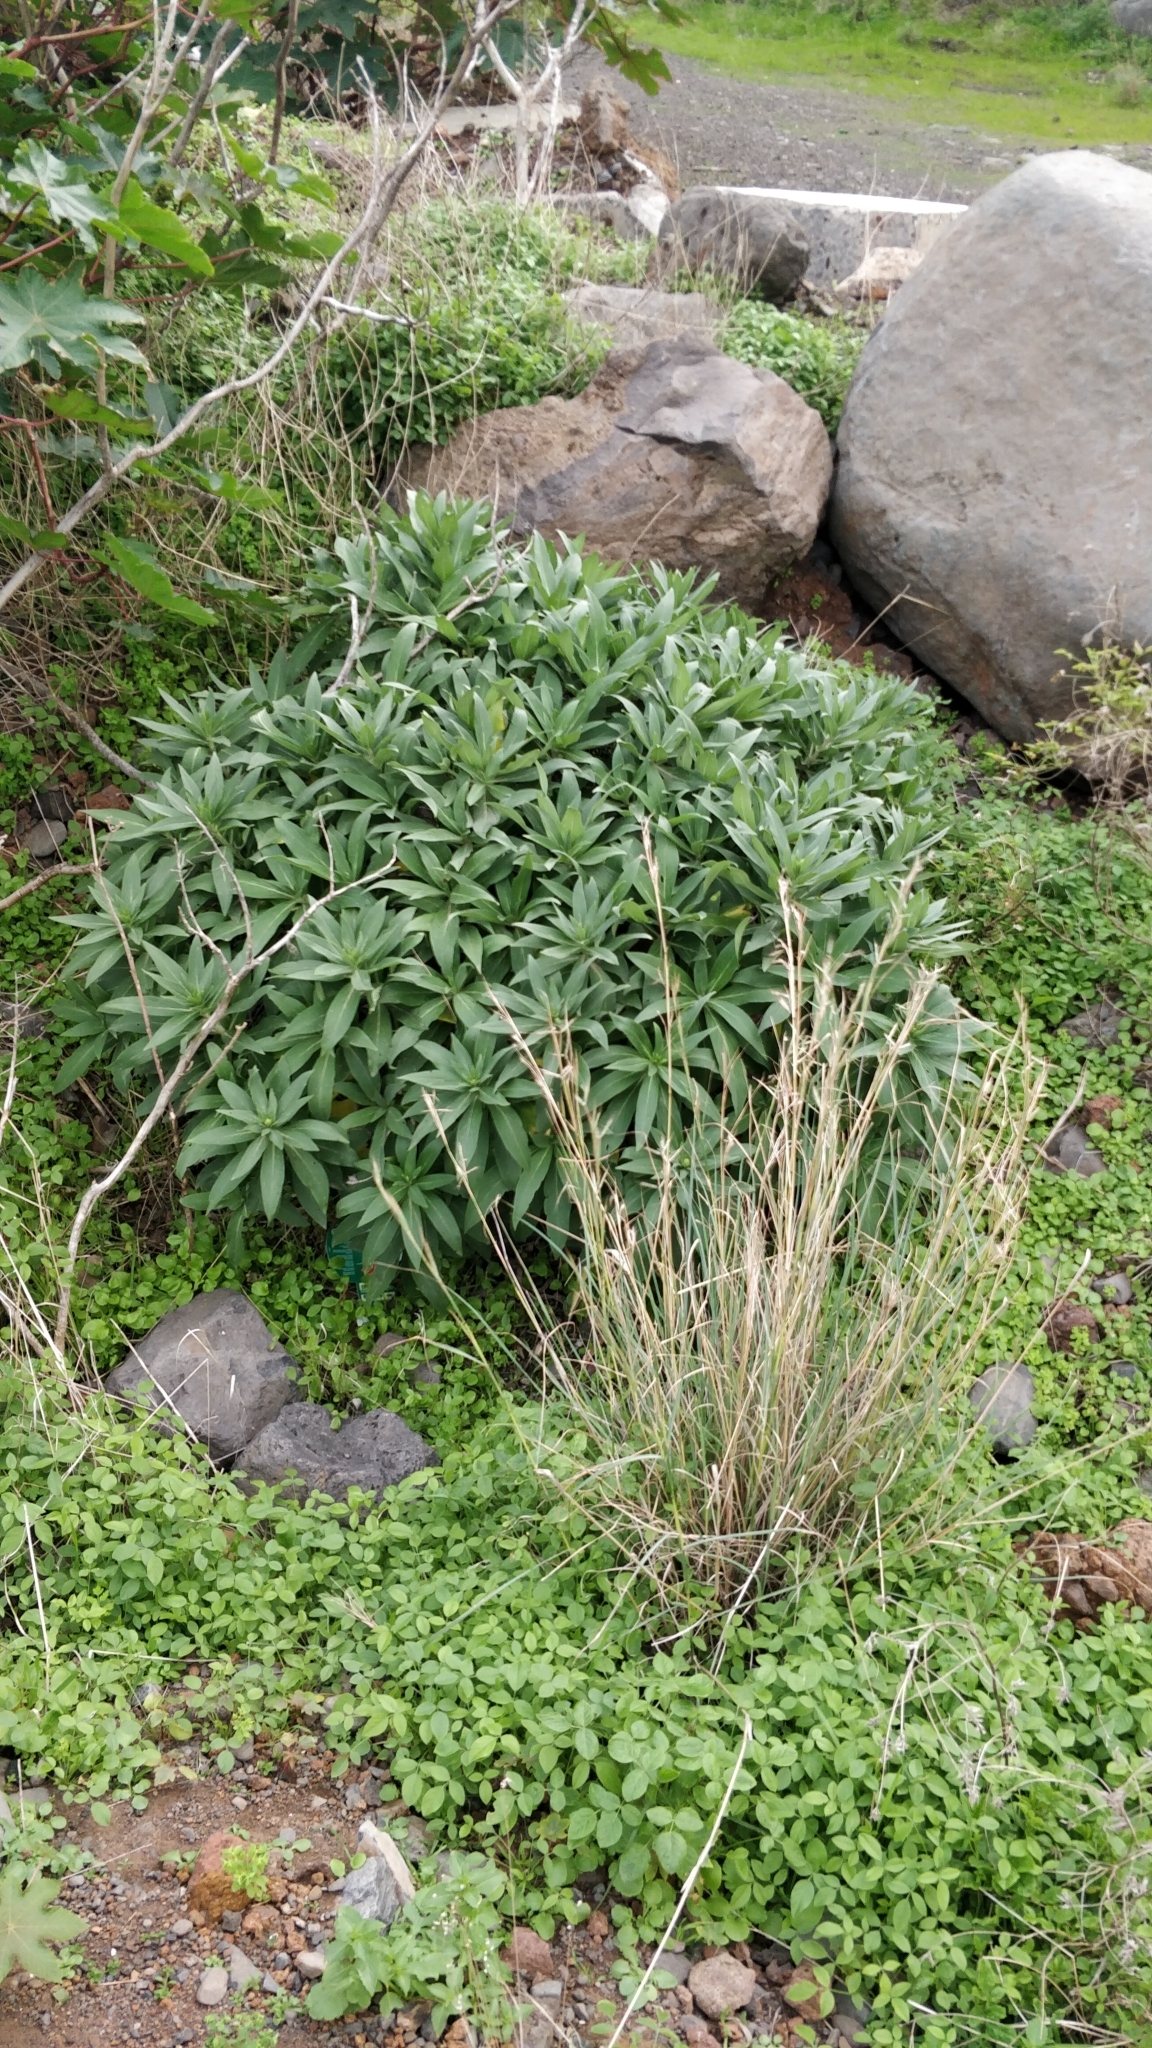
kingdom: Plantae
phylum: Tracheophyta
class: Magnoliopsida
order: Boraginales
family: Boraginaceae
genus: Echium
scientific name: Echium nervosum
